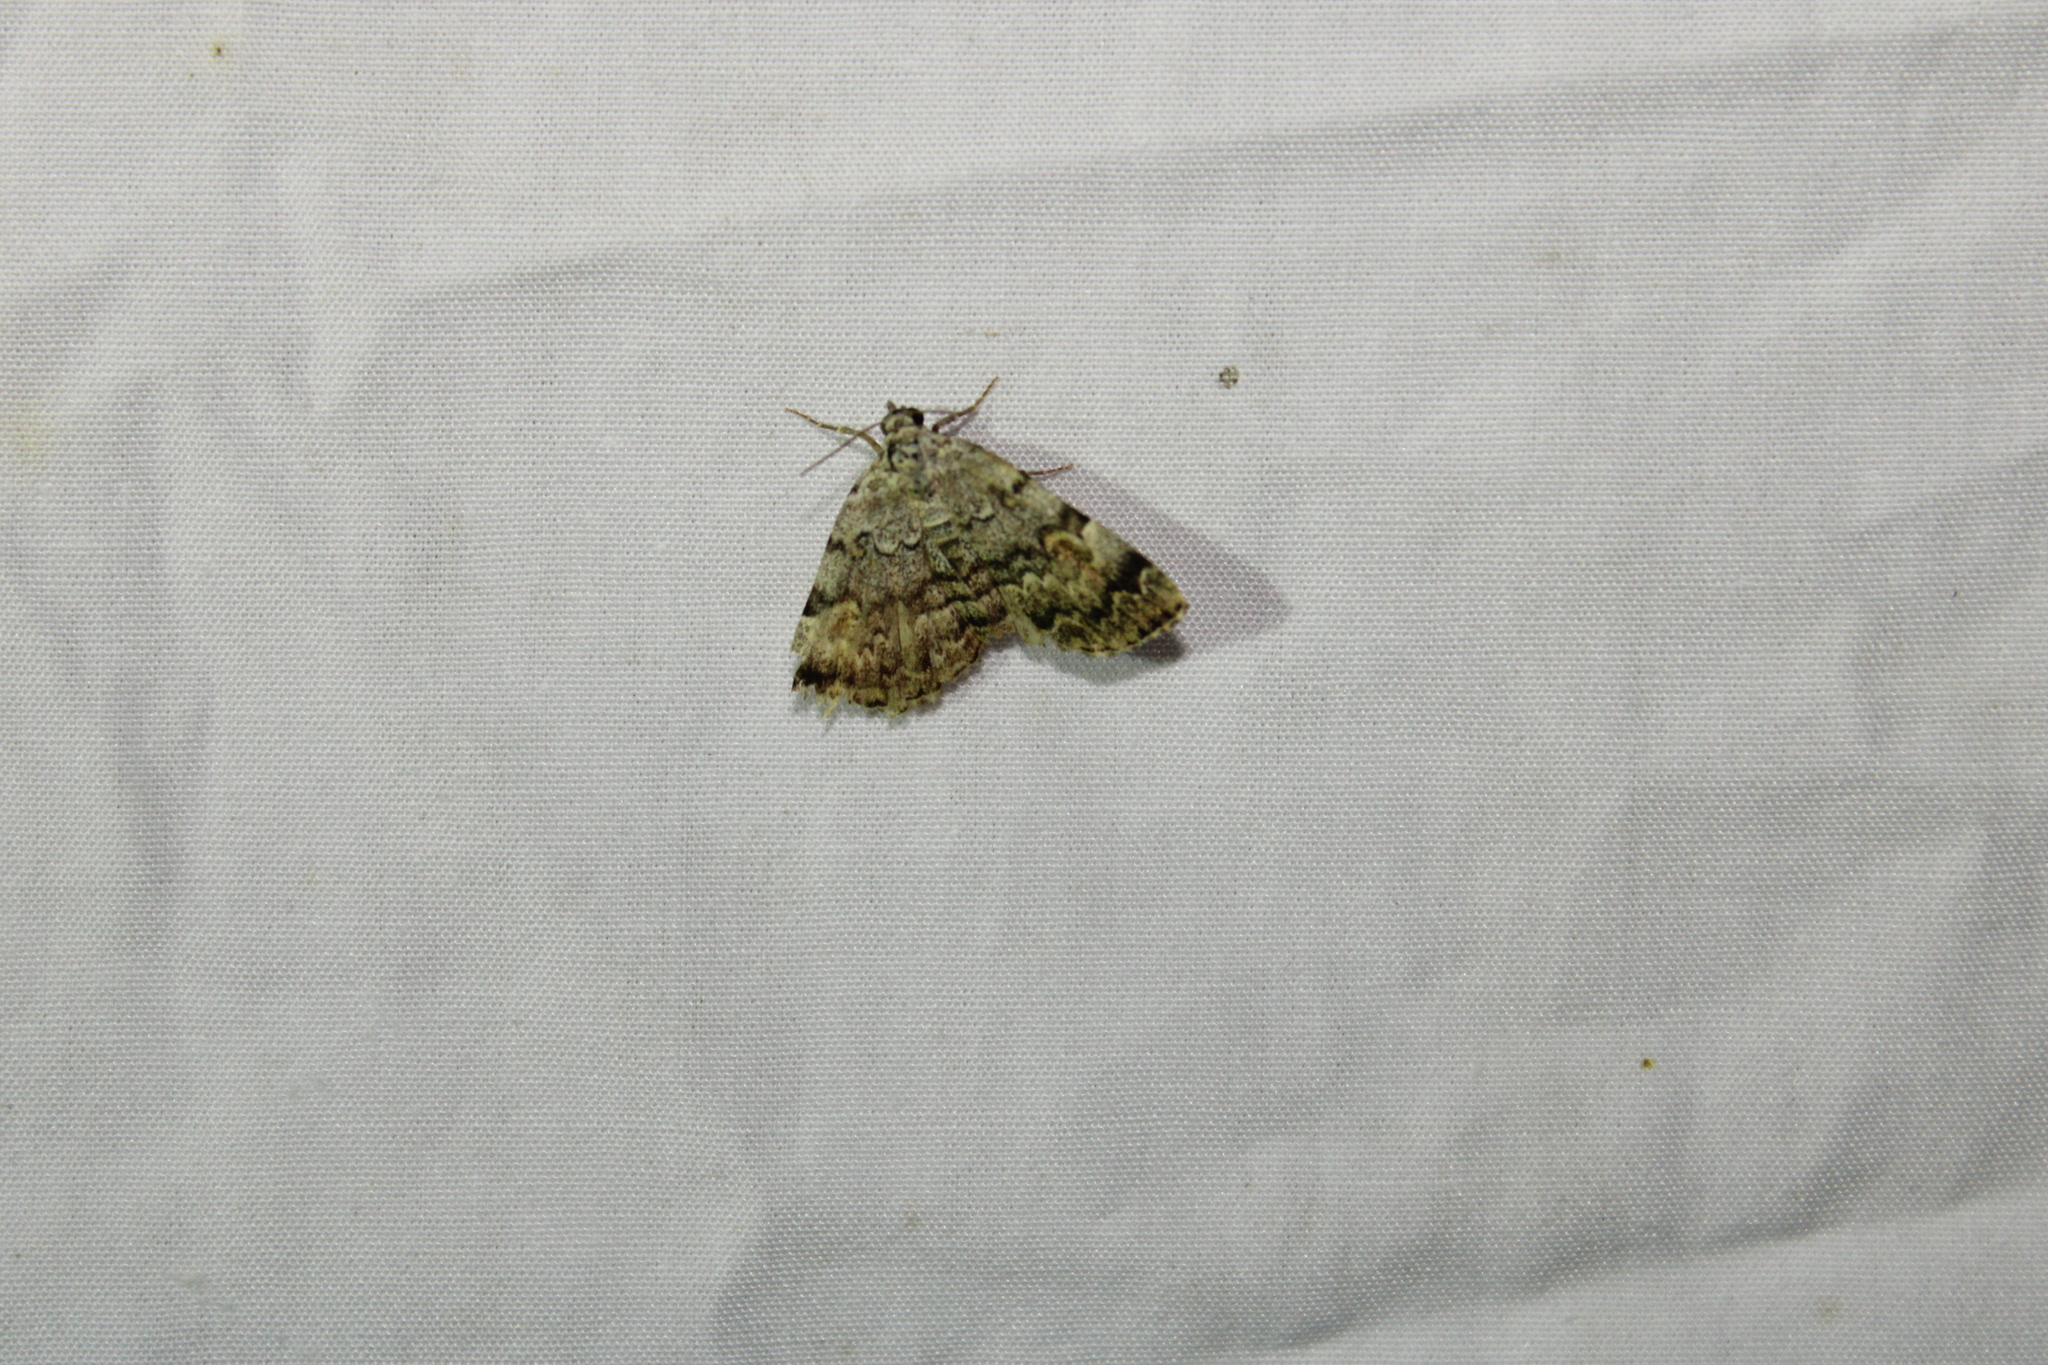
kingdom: Animalia
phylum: Arthropoda
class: Insecta
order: Lepidoptera
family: Erebidae
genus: Idia
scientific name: Idia americalis
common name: American idia moth
